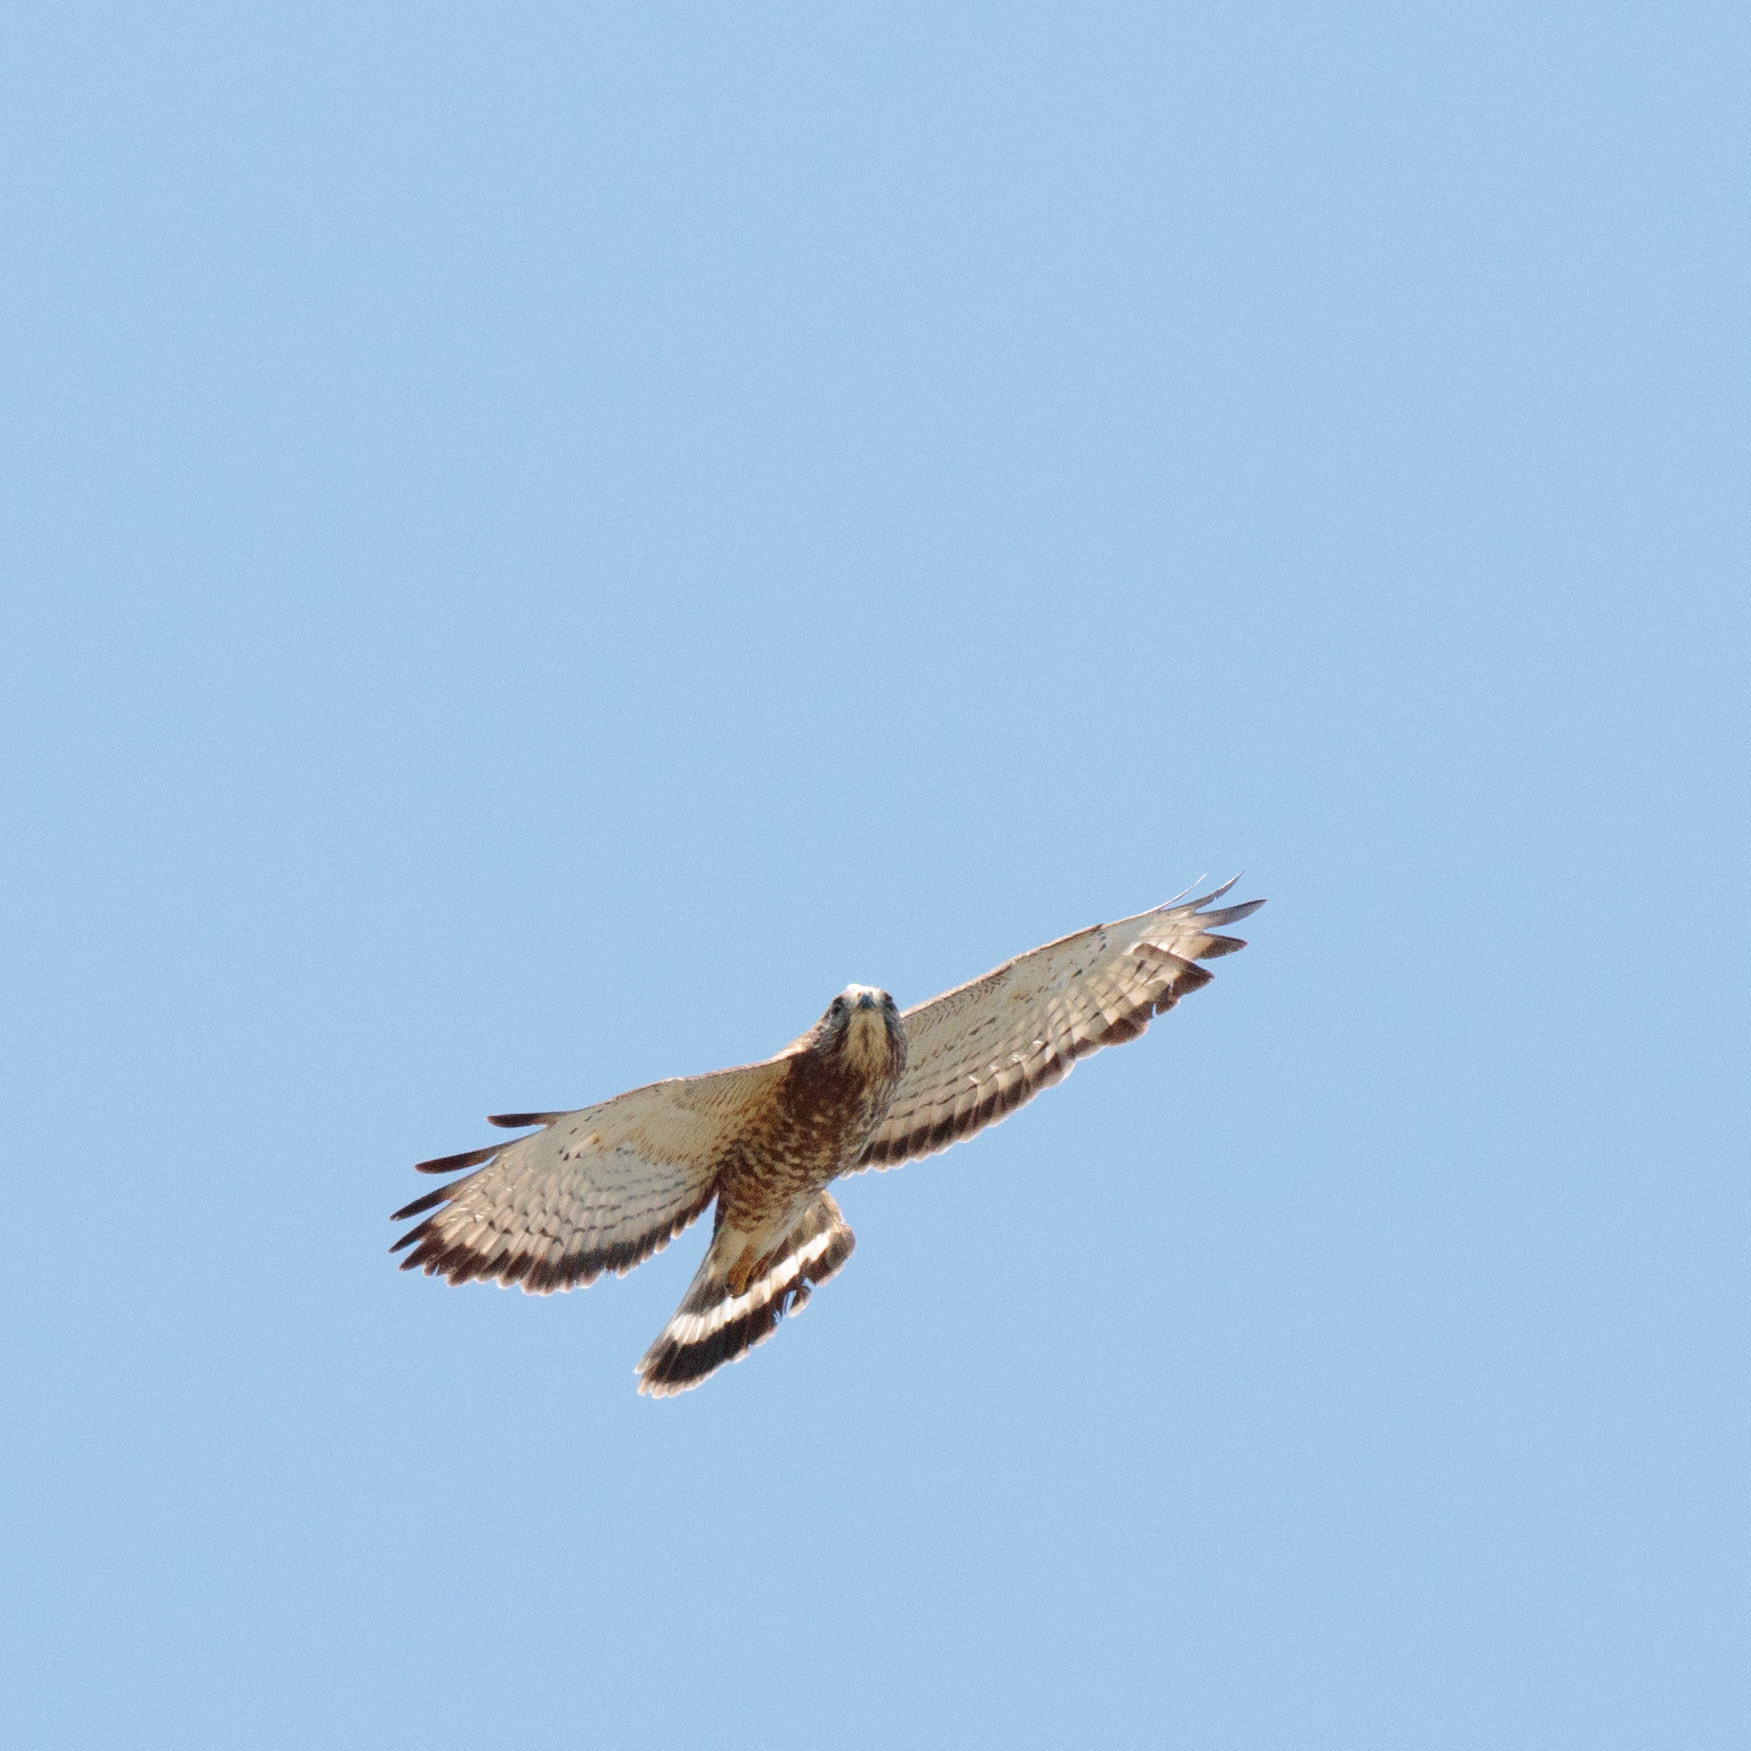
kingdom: Animalia
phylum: Chordata
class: Aves
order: Accipitriformes
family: Accipitridae
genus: Buteo
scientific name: Buteo platypterus
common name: Broad-winged hawk
